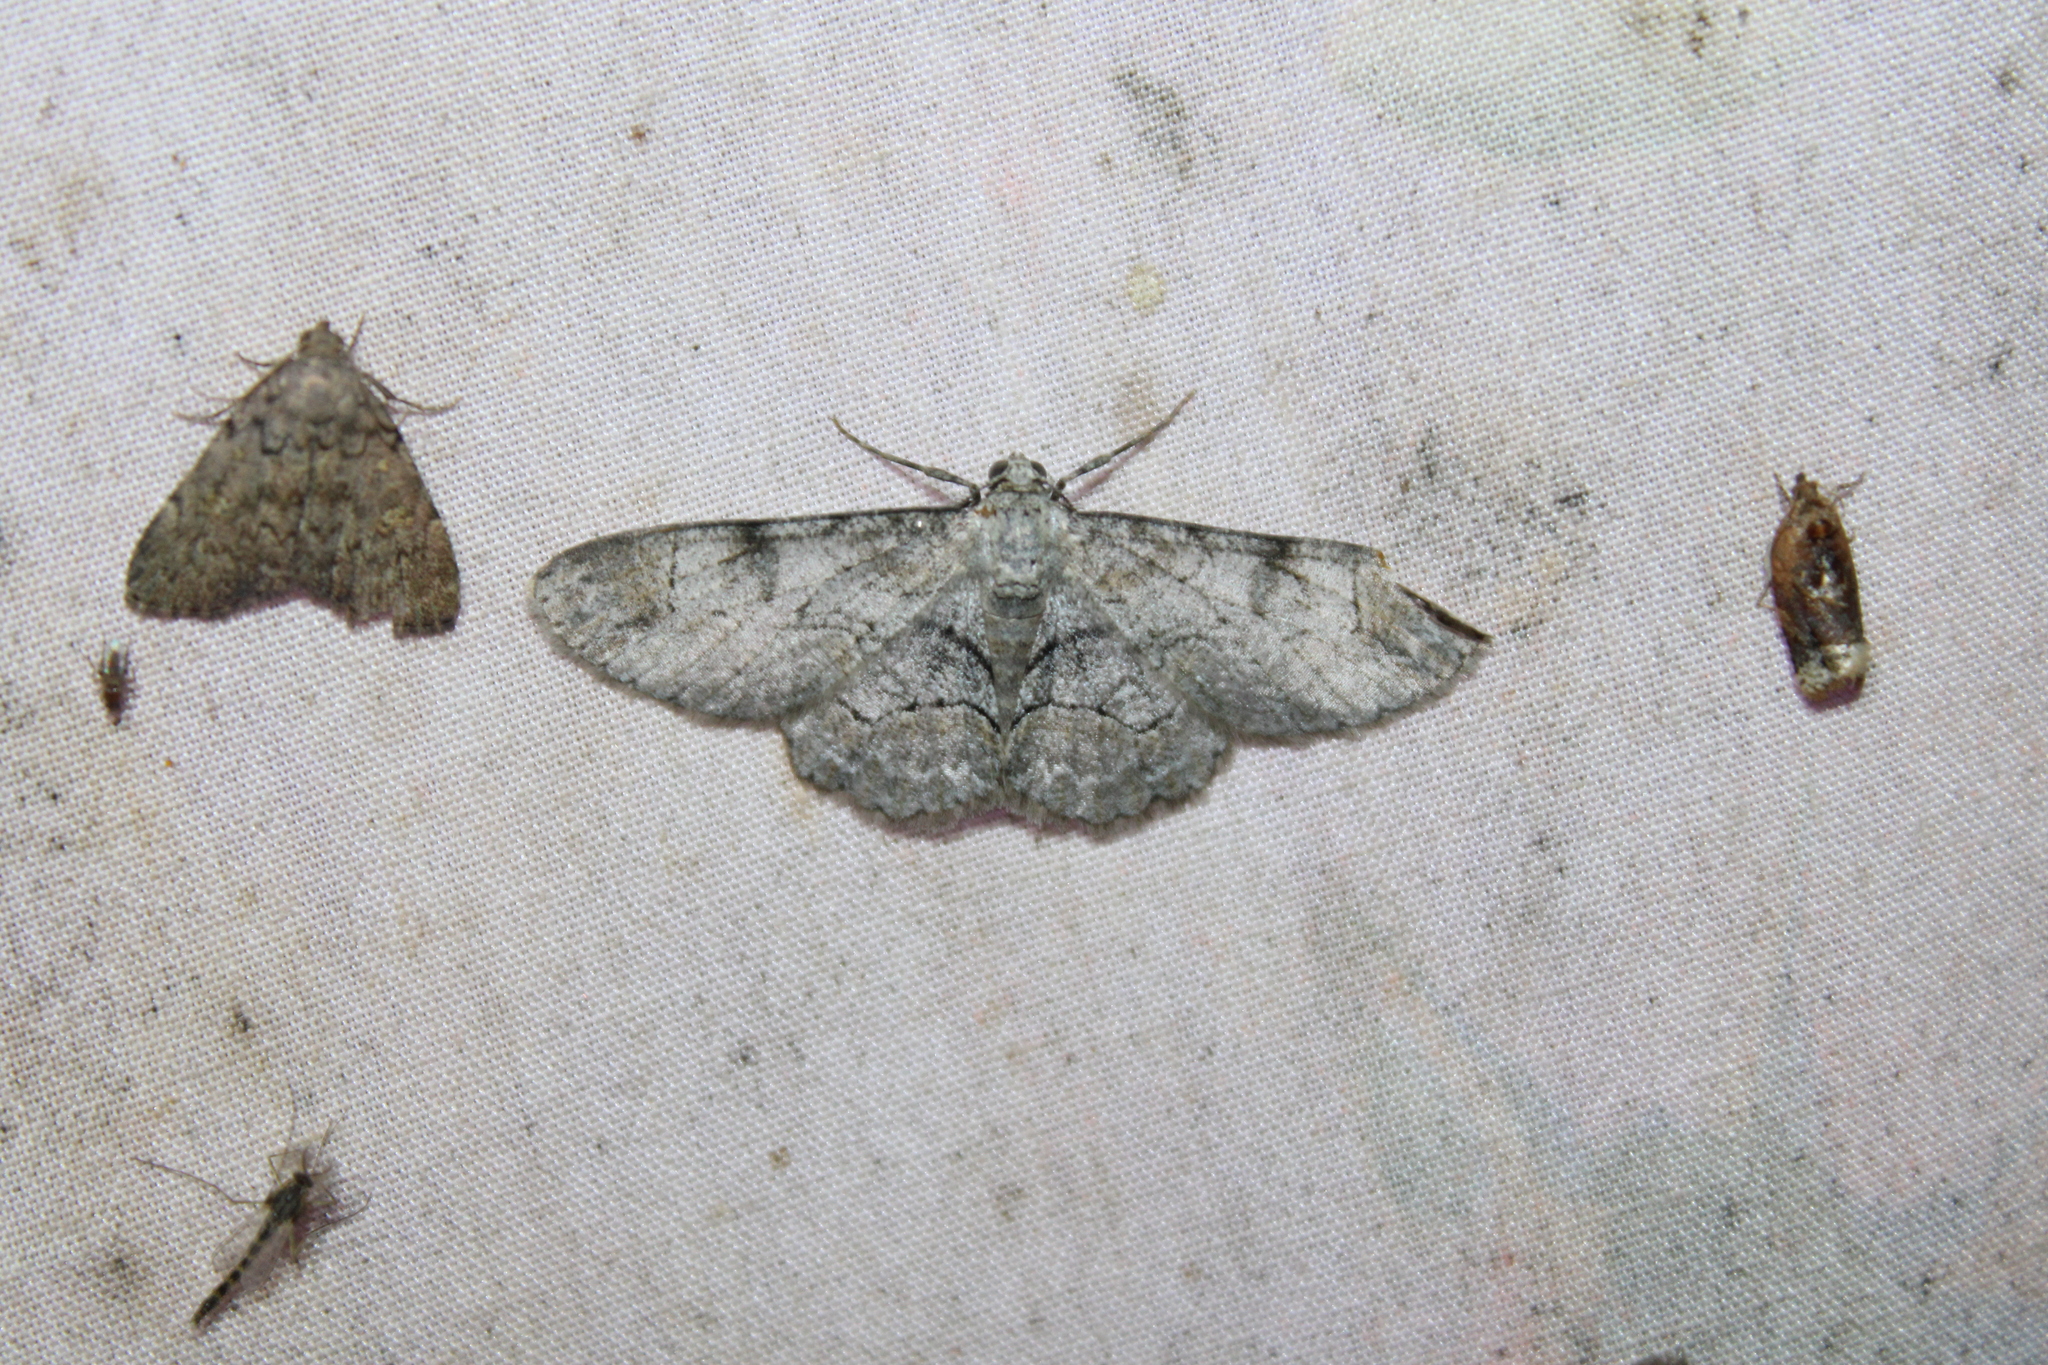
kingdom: Animalia
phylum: Arthropoda
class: Insecta
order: Lepidoptera
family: Geometridae
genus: Iridopsis
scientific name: Iridopsis larvaria
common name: Bent-line gray
